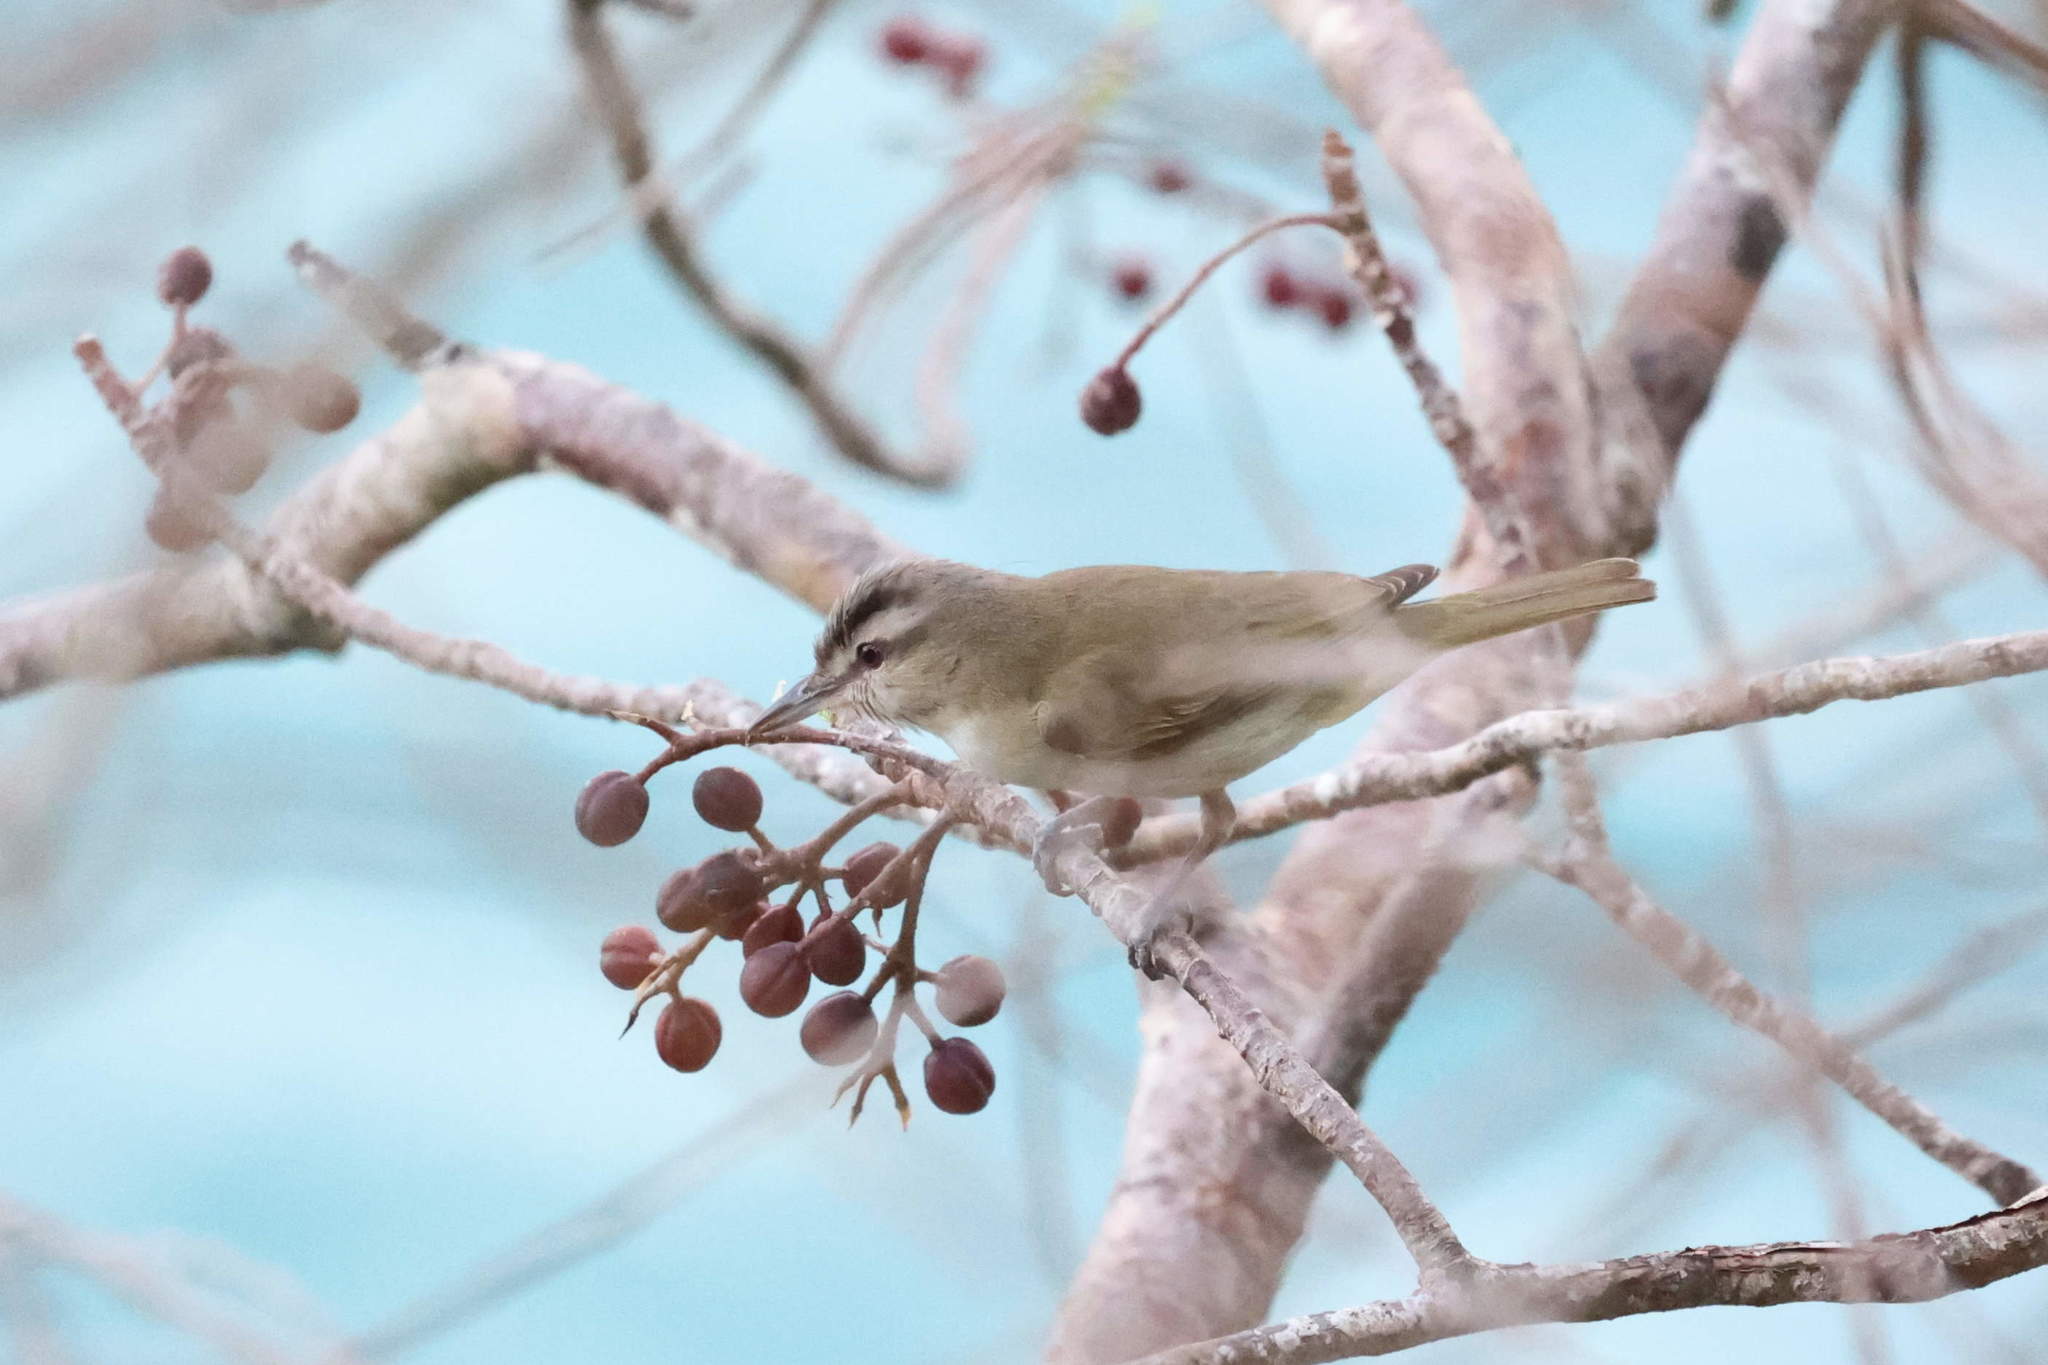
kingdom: Animalia
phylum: Chordata
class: Aves
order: Passeriformes
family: Vireonidae
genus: Vireo
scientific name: Vireo altiloquus
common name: Black-whiskered vireo
